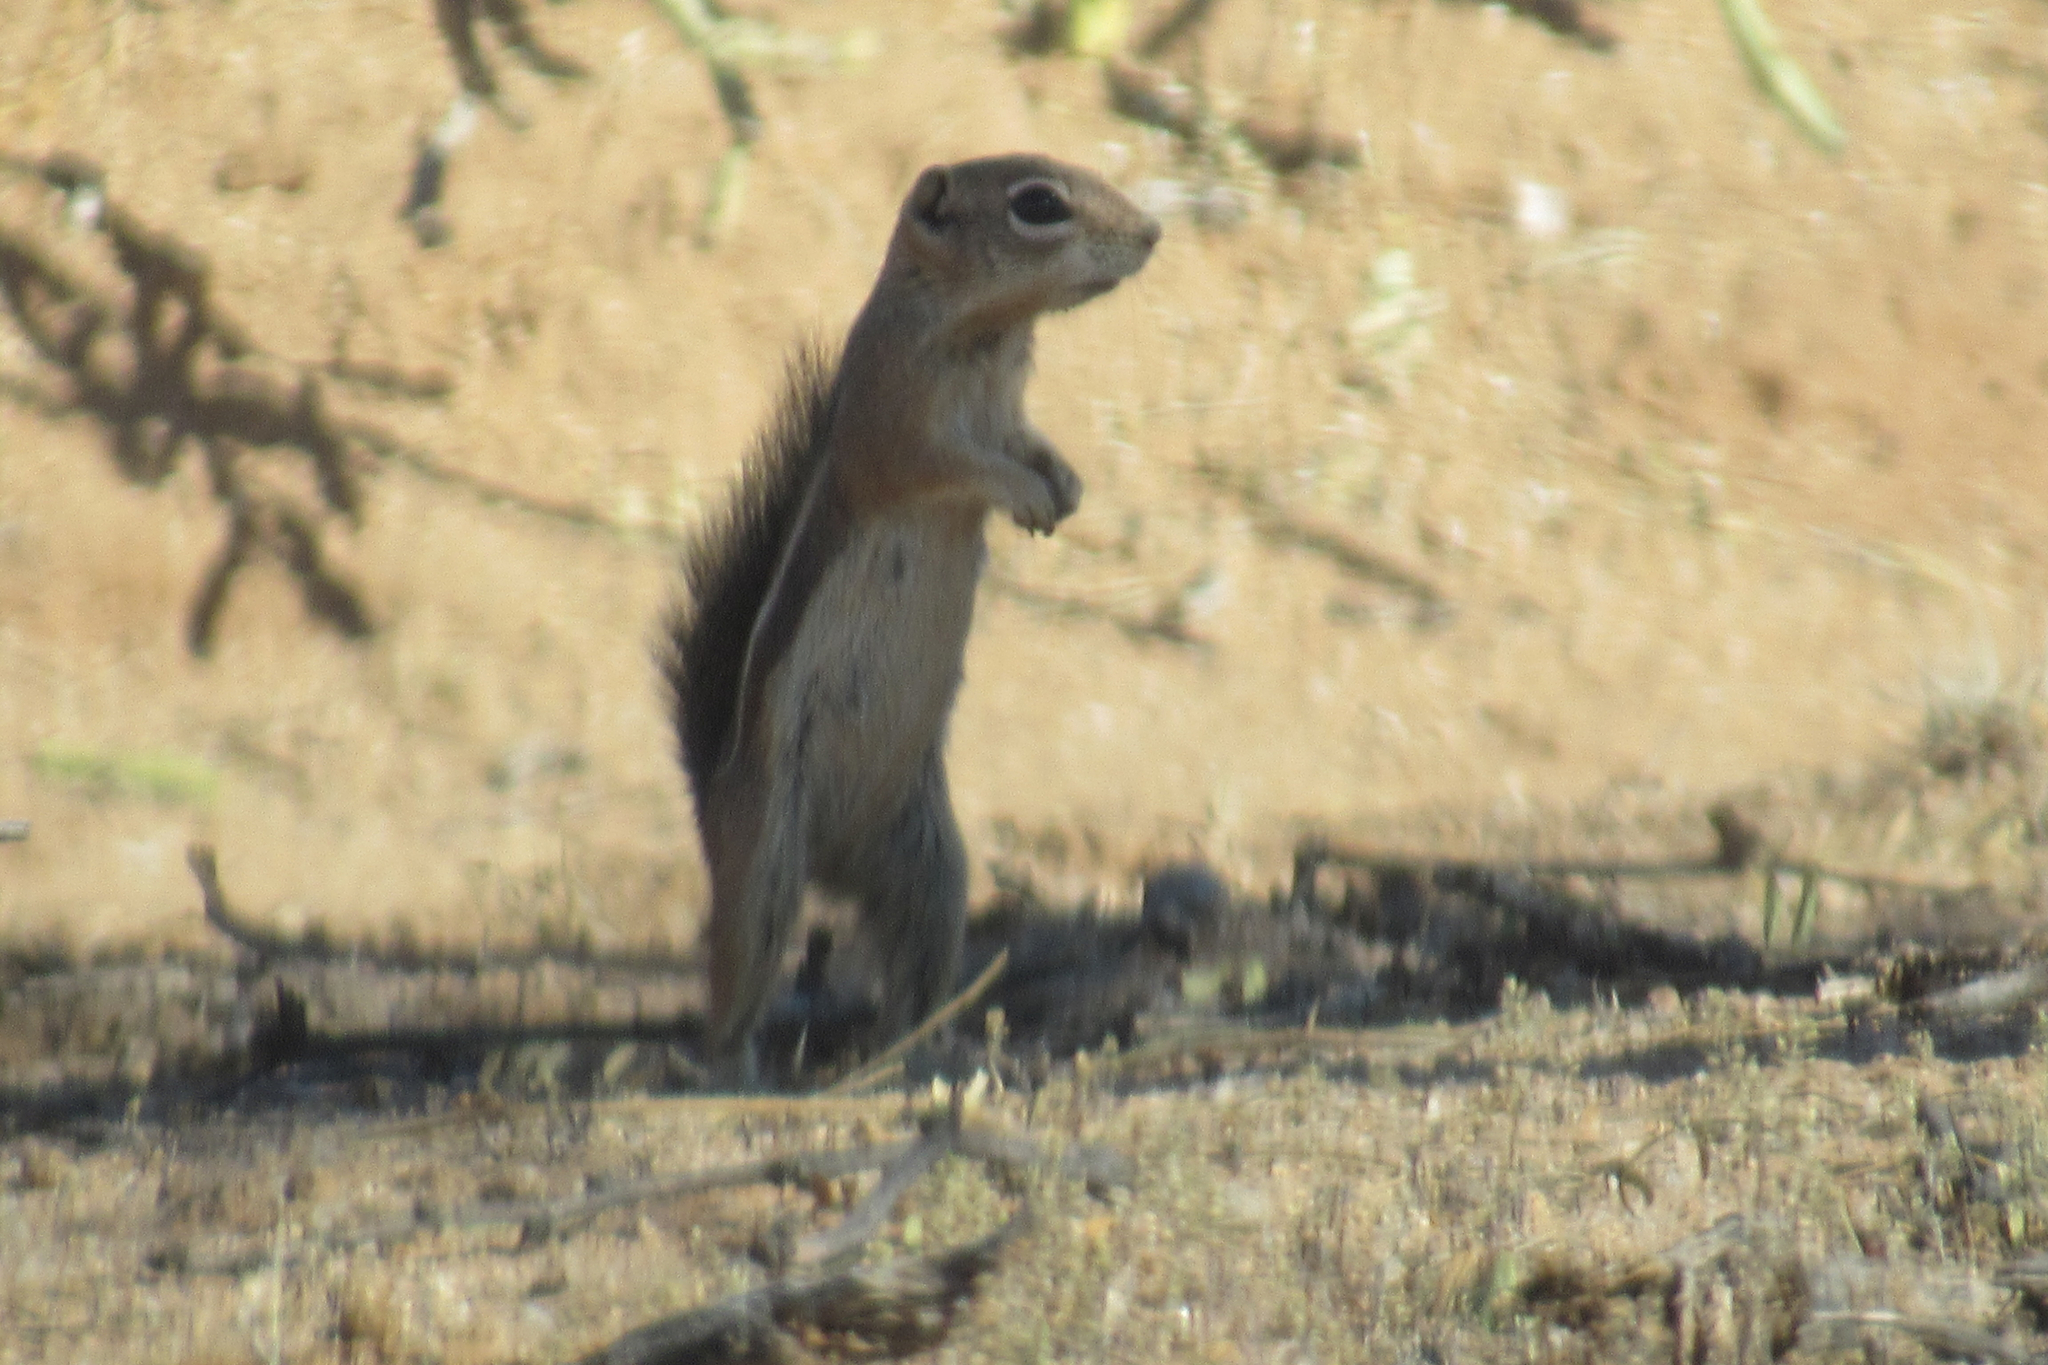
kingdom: Animalia
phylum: Chordata
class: Mammalia
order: Rodentia
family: Sciuridae
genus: Ammospermophilus
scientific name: Ammospermophilus harrisii
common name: Harris's antelope squirrel
